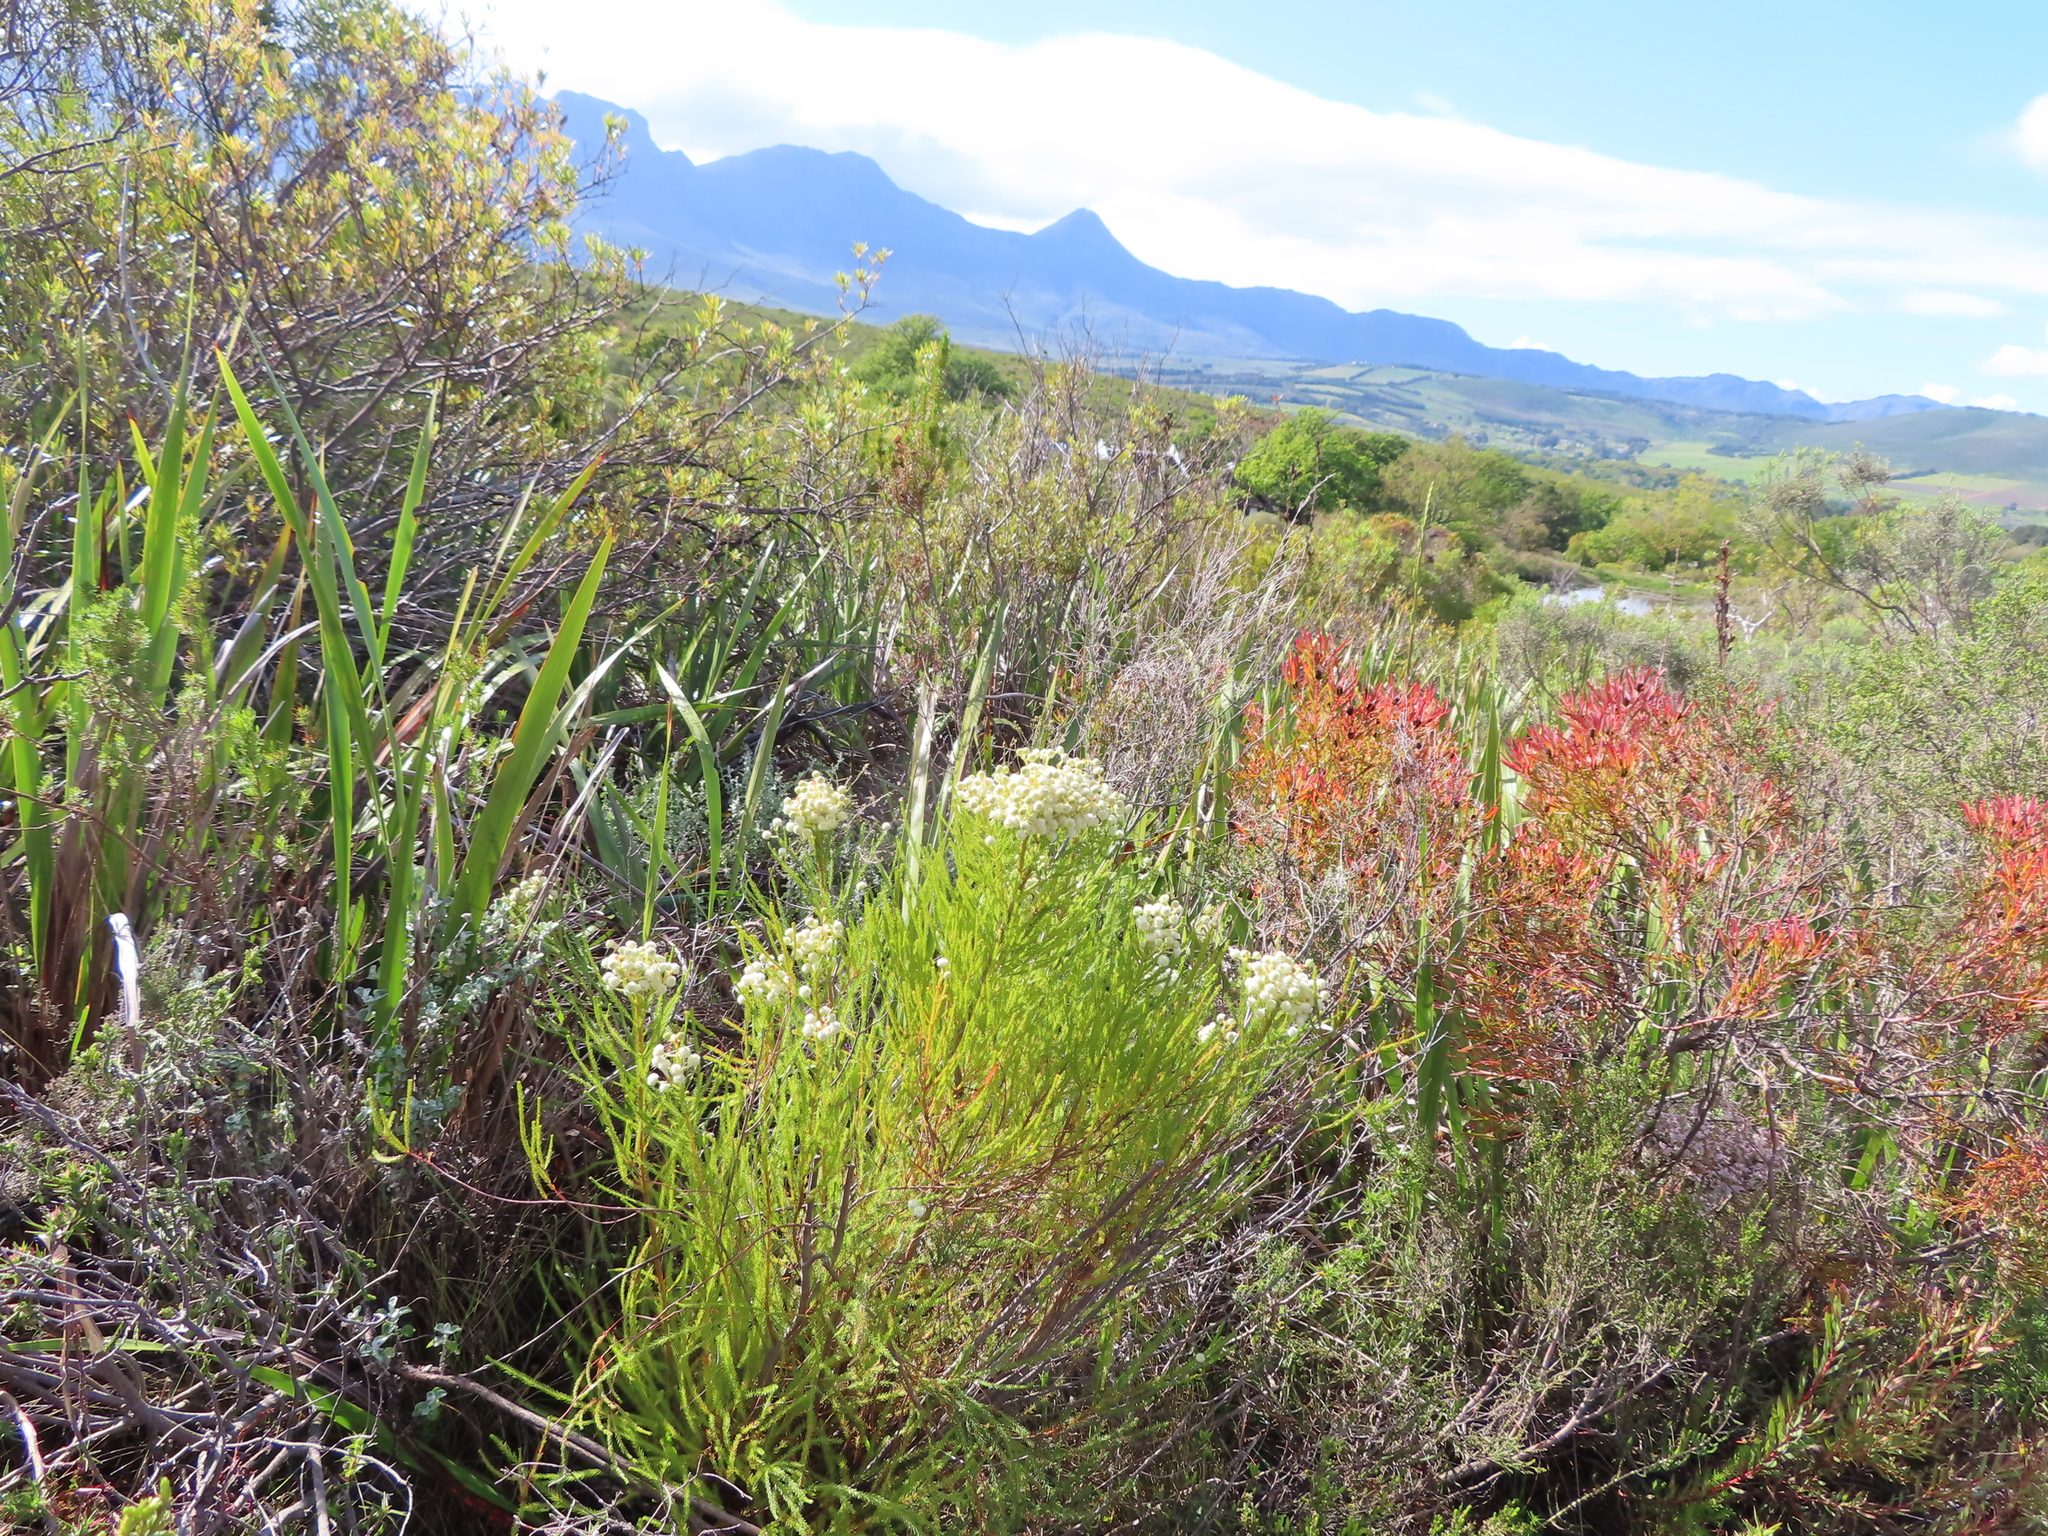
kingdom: Plantae
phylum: Tracheophyta
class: Magnoliopsida
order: Bruniales
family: Bruniaceae
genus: Berzelia
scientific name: Berzelia lanuginosa
